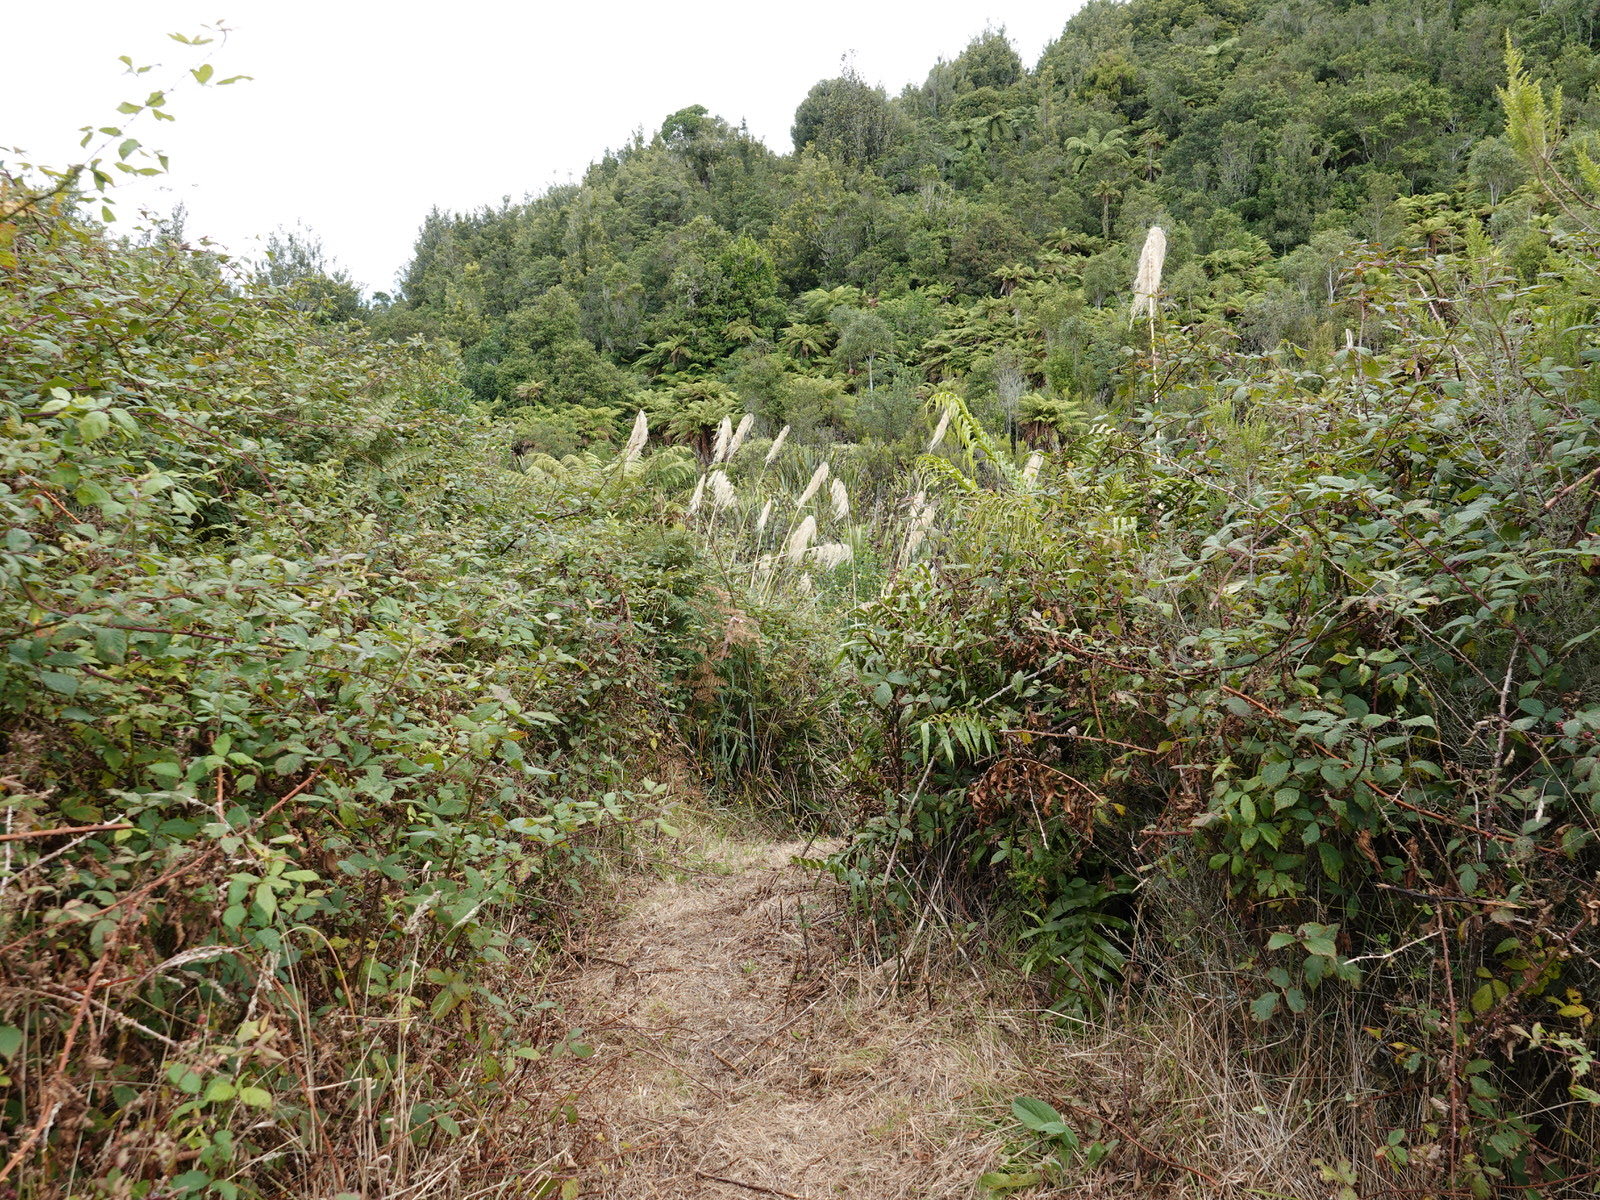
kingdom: Plantae
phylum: Tracheophyta
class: Magnoliopsida
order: Rosales
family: Rosaceae
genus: Rubus
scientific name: Rubus
